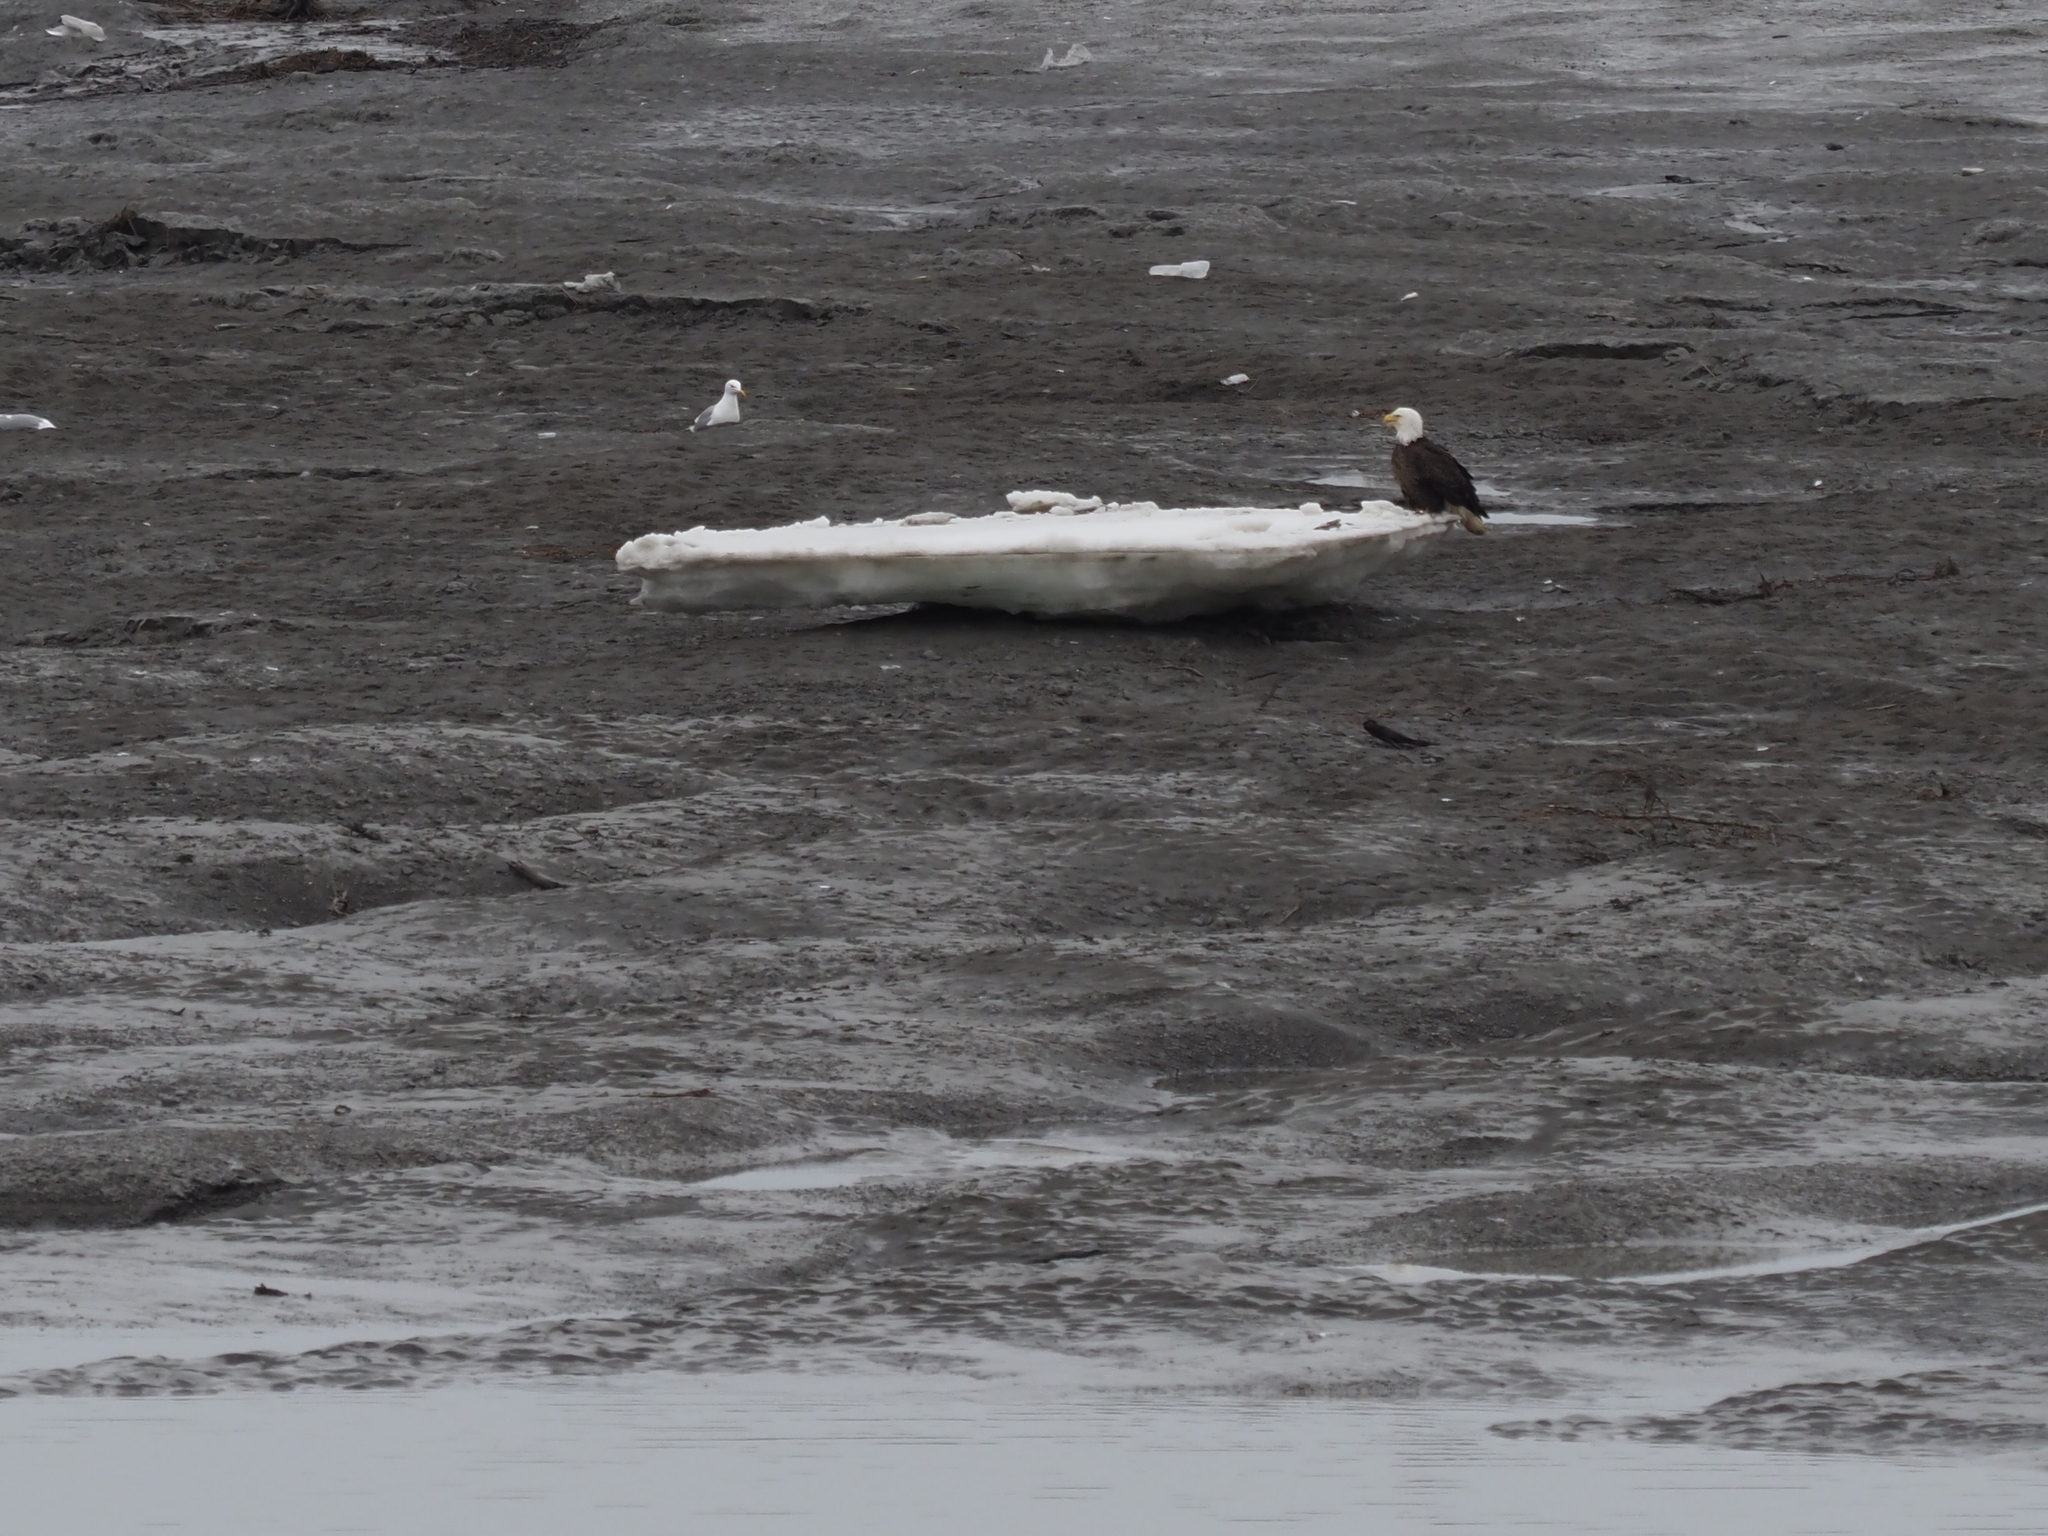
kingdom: Animalia
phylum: Chordata
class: Aves
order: Accipitriformes
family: Accipitridae
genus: Haliaeetus
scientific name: Haliaeetus leucocephalus
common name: Bald eagle
